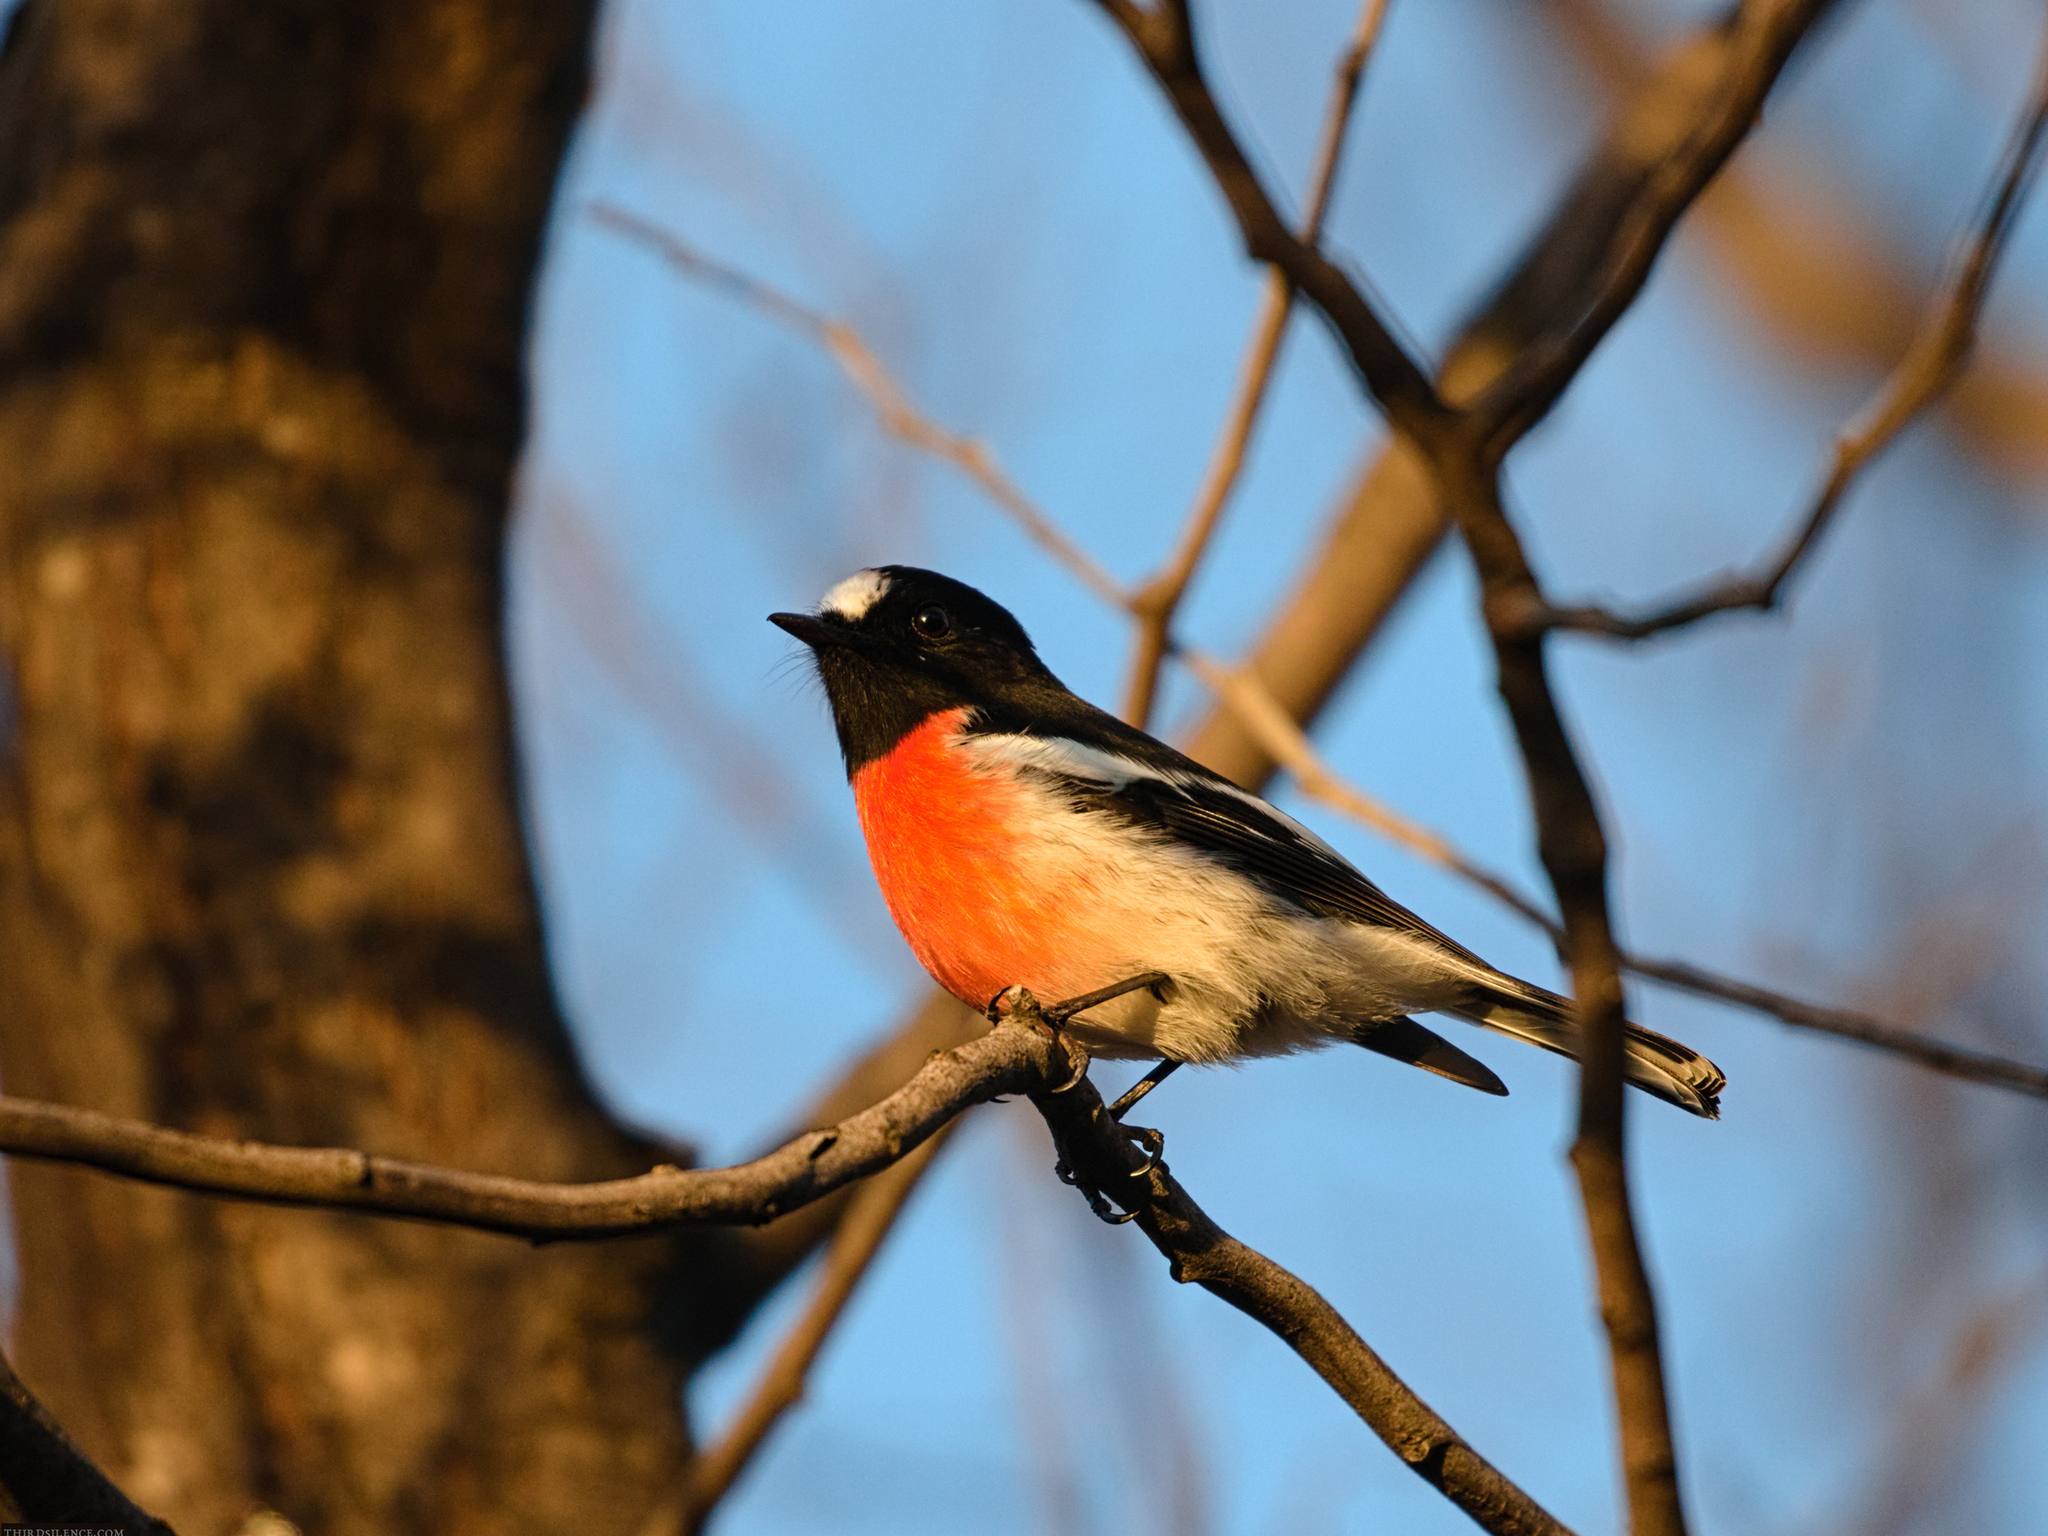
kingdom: Animalia
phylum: Chordata
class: Aves
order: Passeriformes
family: Petroicidae
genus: Petroica
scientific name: Petroica boodang
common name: Scarlet robin
